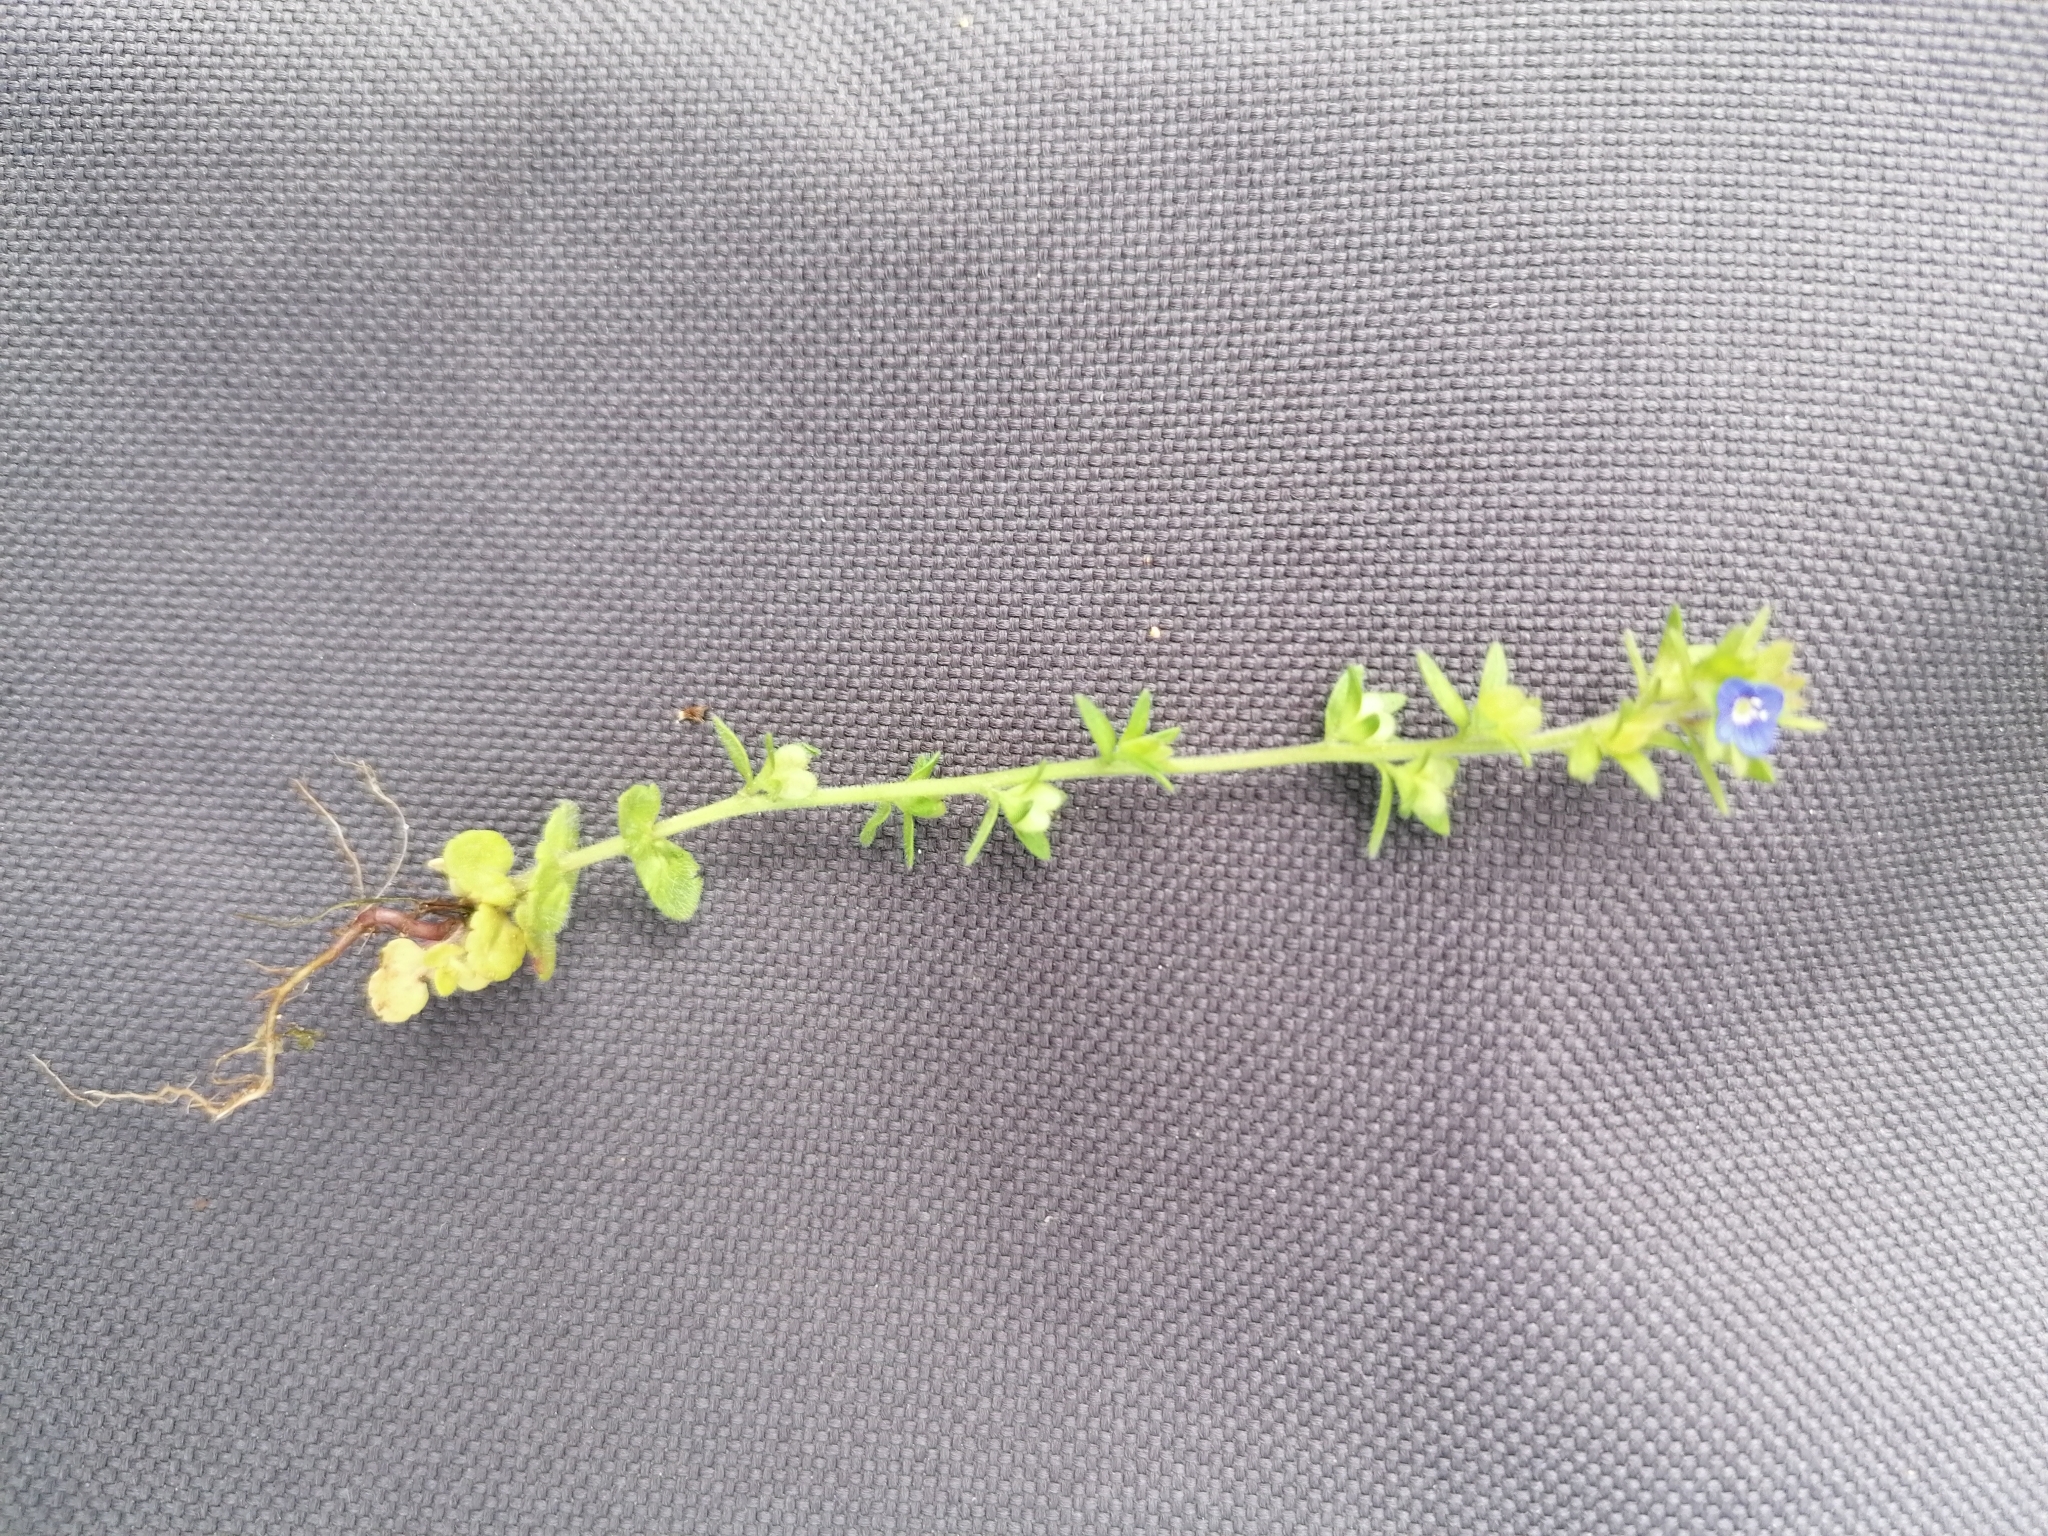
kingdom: Plantae
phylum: Tracheophyta
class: Magnoliopsida
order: Lamiales
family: Plantaginaceae
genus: Veronica
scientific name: Veronica arvensis
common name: Corn speedwell
